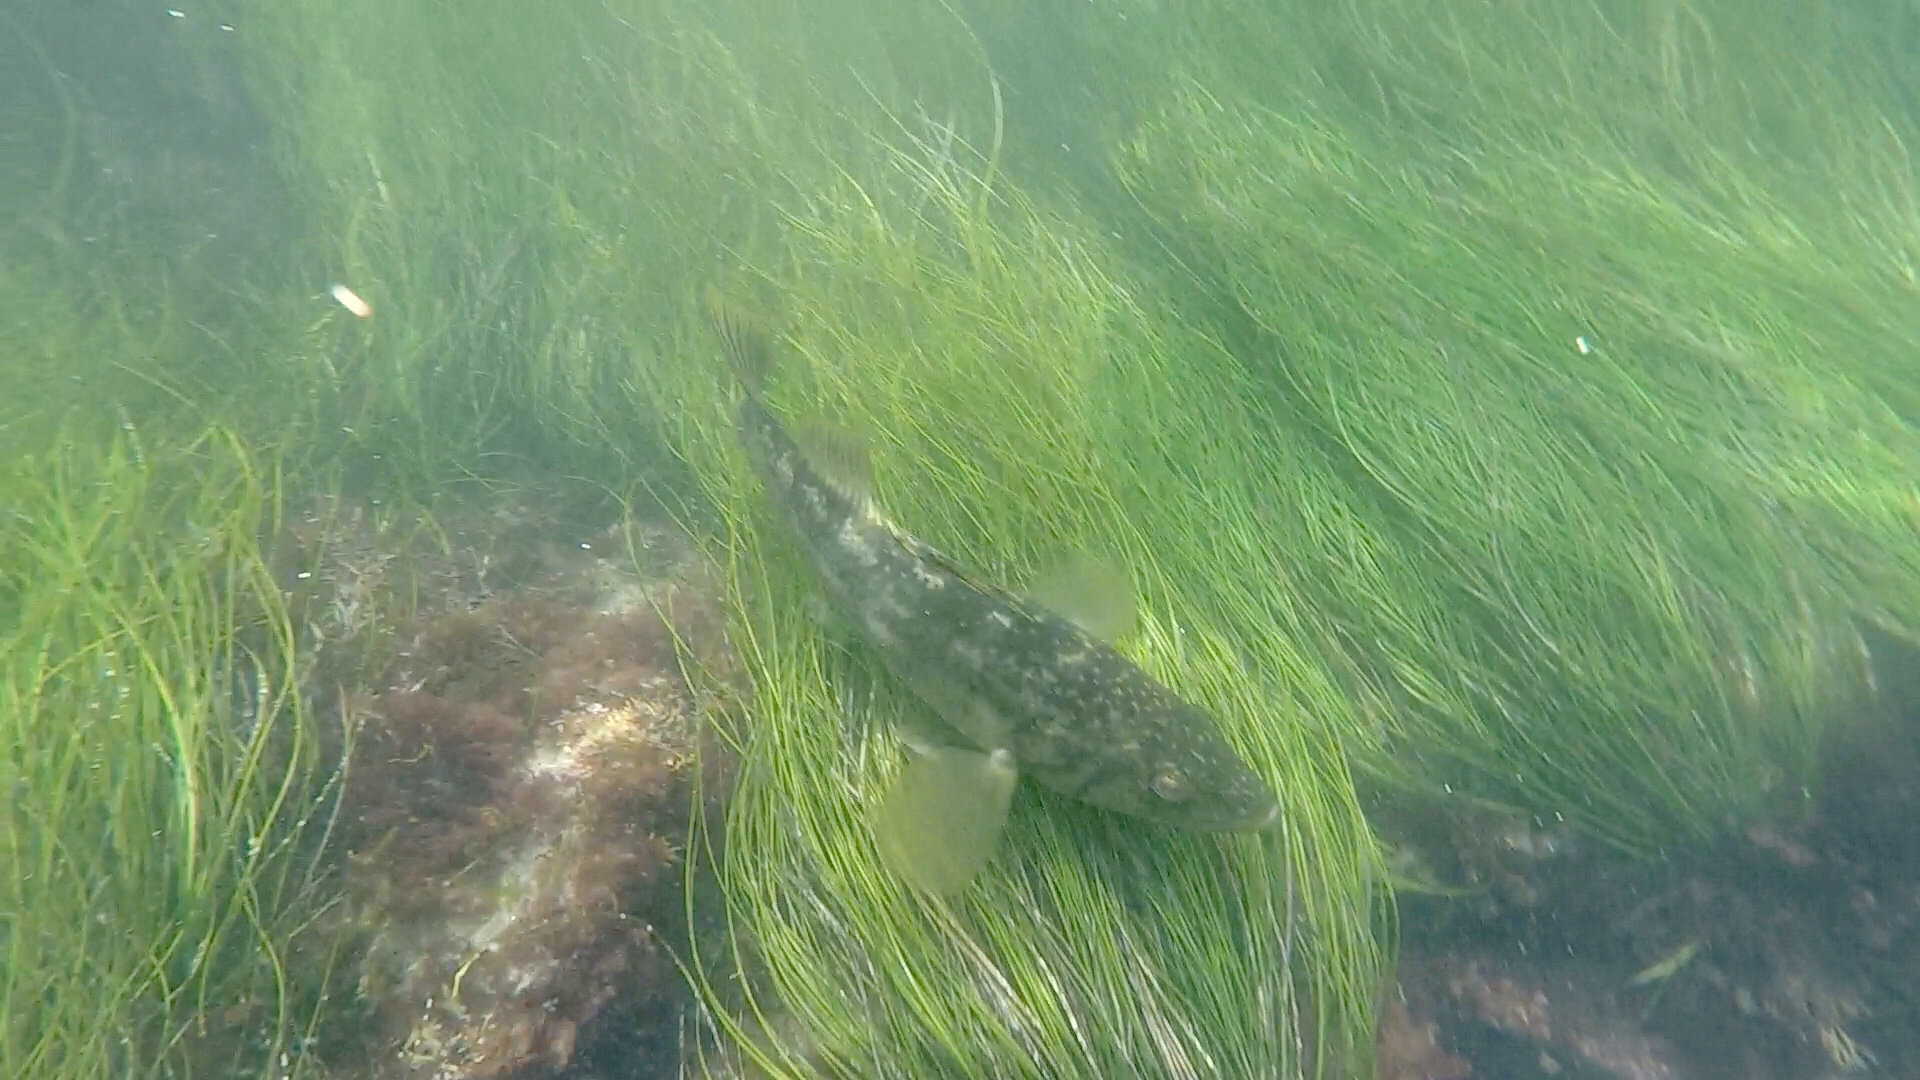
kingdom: Animalia
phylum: Chordata
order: Perciformes
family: Serranidae
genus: Paralabrax
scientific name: Paralabrax clathratus
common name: Kelp bass
